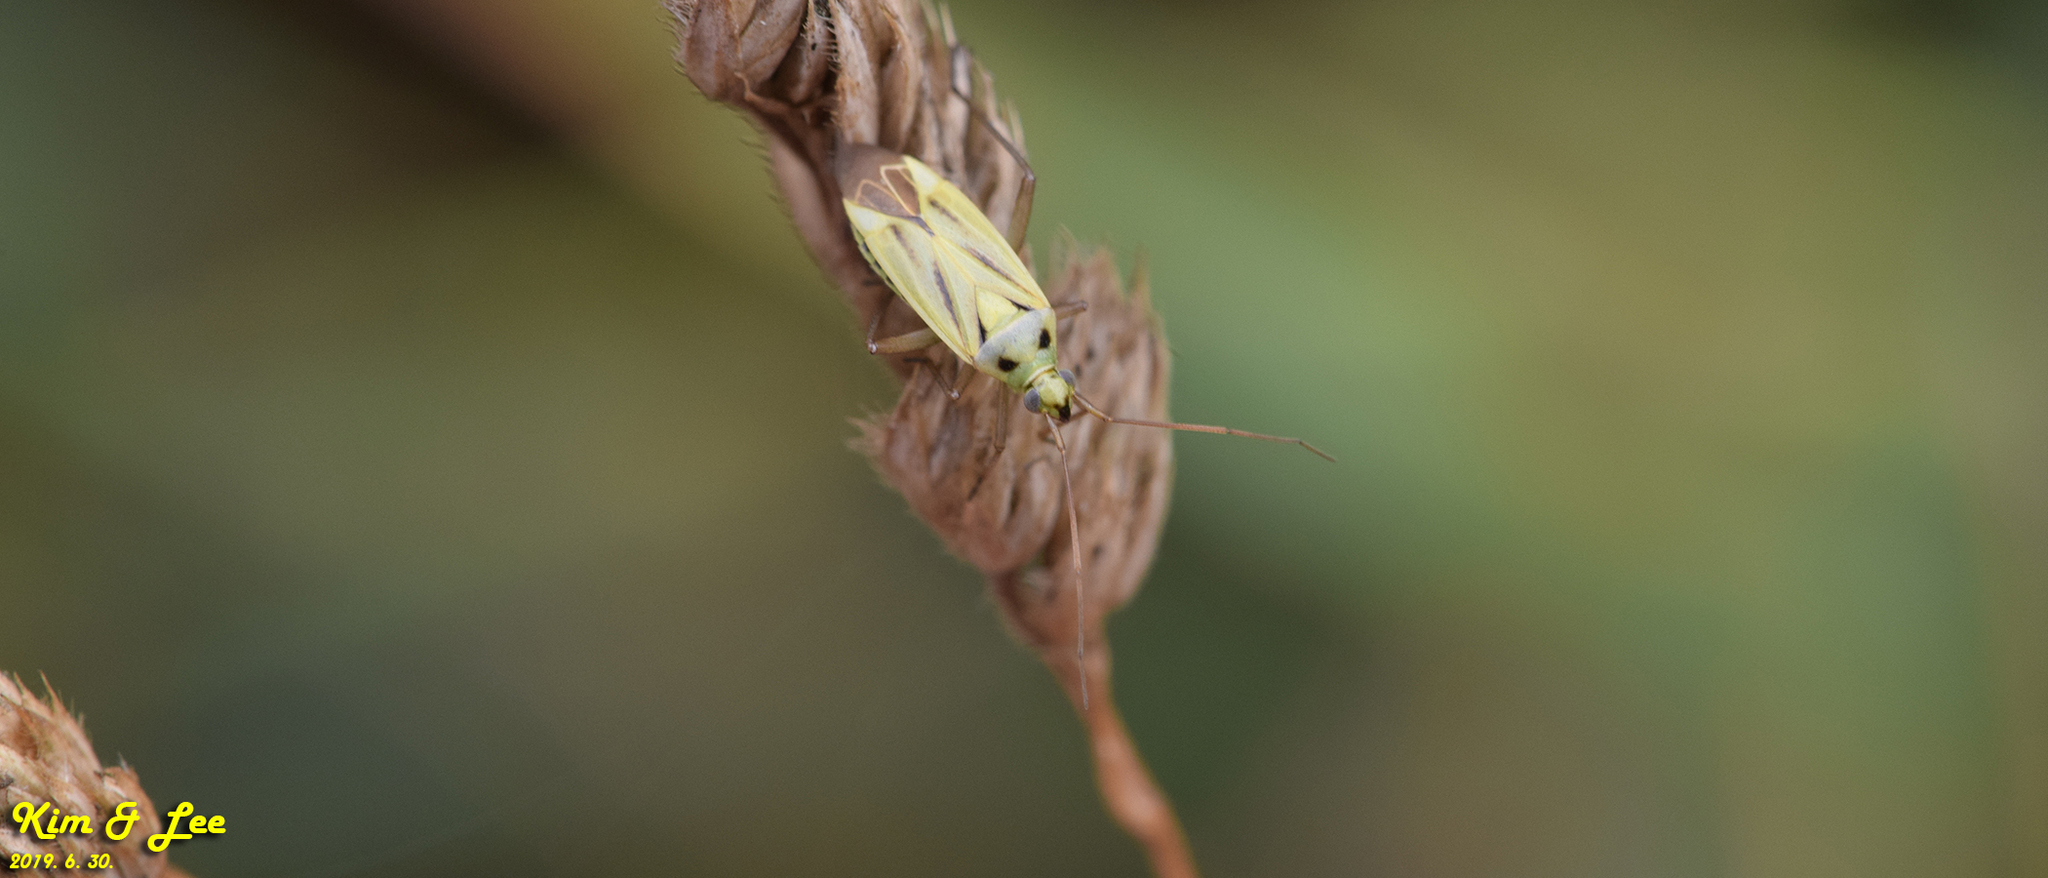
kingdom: Animalia
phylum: Arthropoda
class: Insecta
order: Hemiptera
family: Miridae
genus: Stenotus
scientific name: Stenotus binotatus
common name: Plant bug
